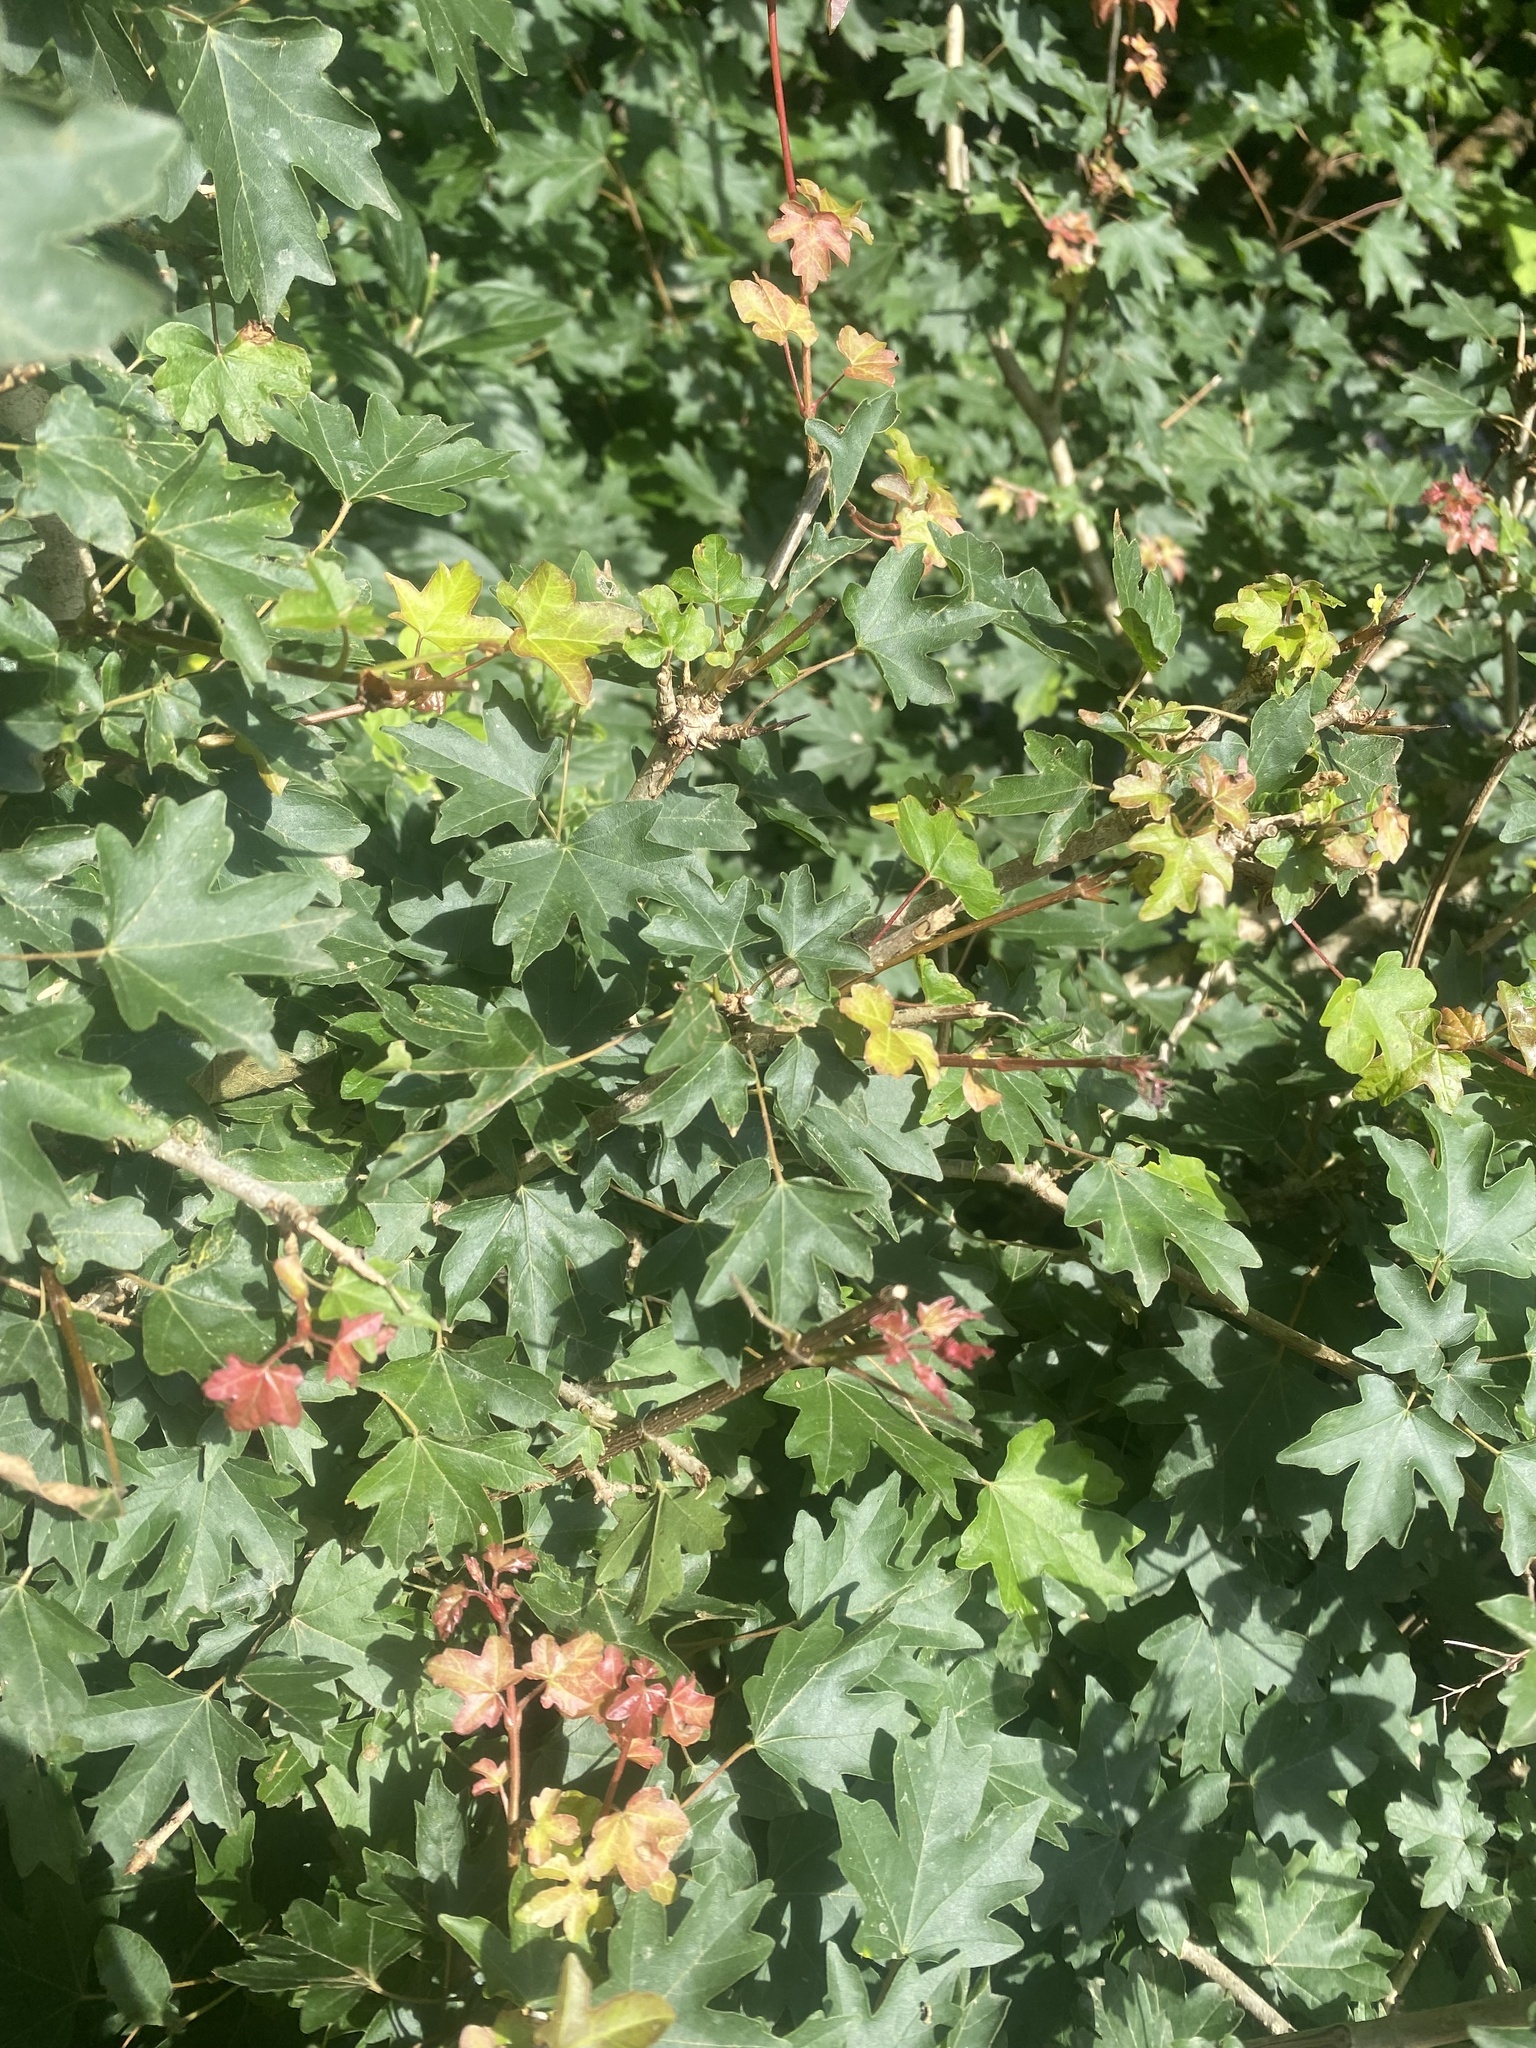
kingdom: Plantae
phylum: Tracheophyta
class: Magnoliopsida
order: Sapindales
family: Sapindaceae
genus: Acer
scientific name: Acer campestre
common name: Field maple
